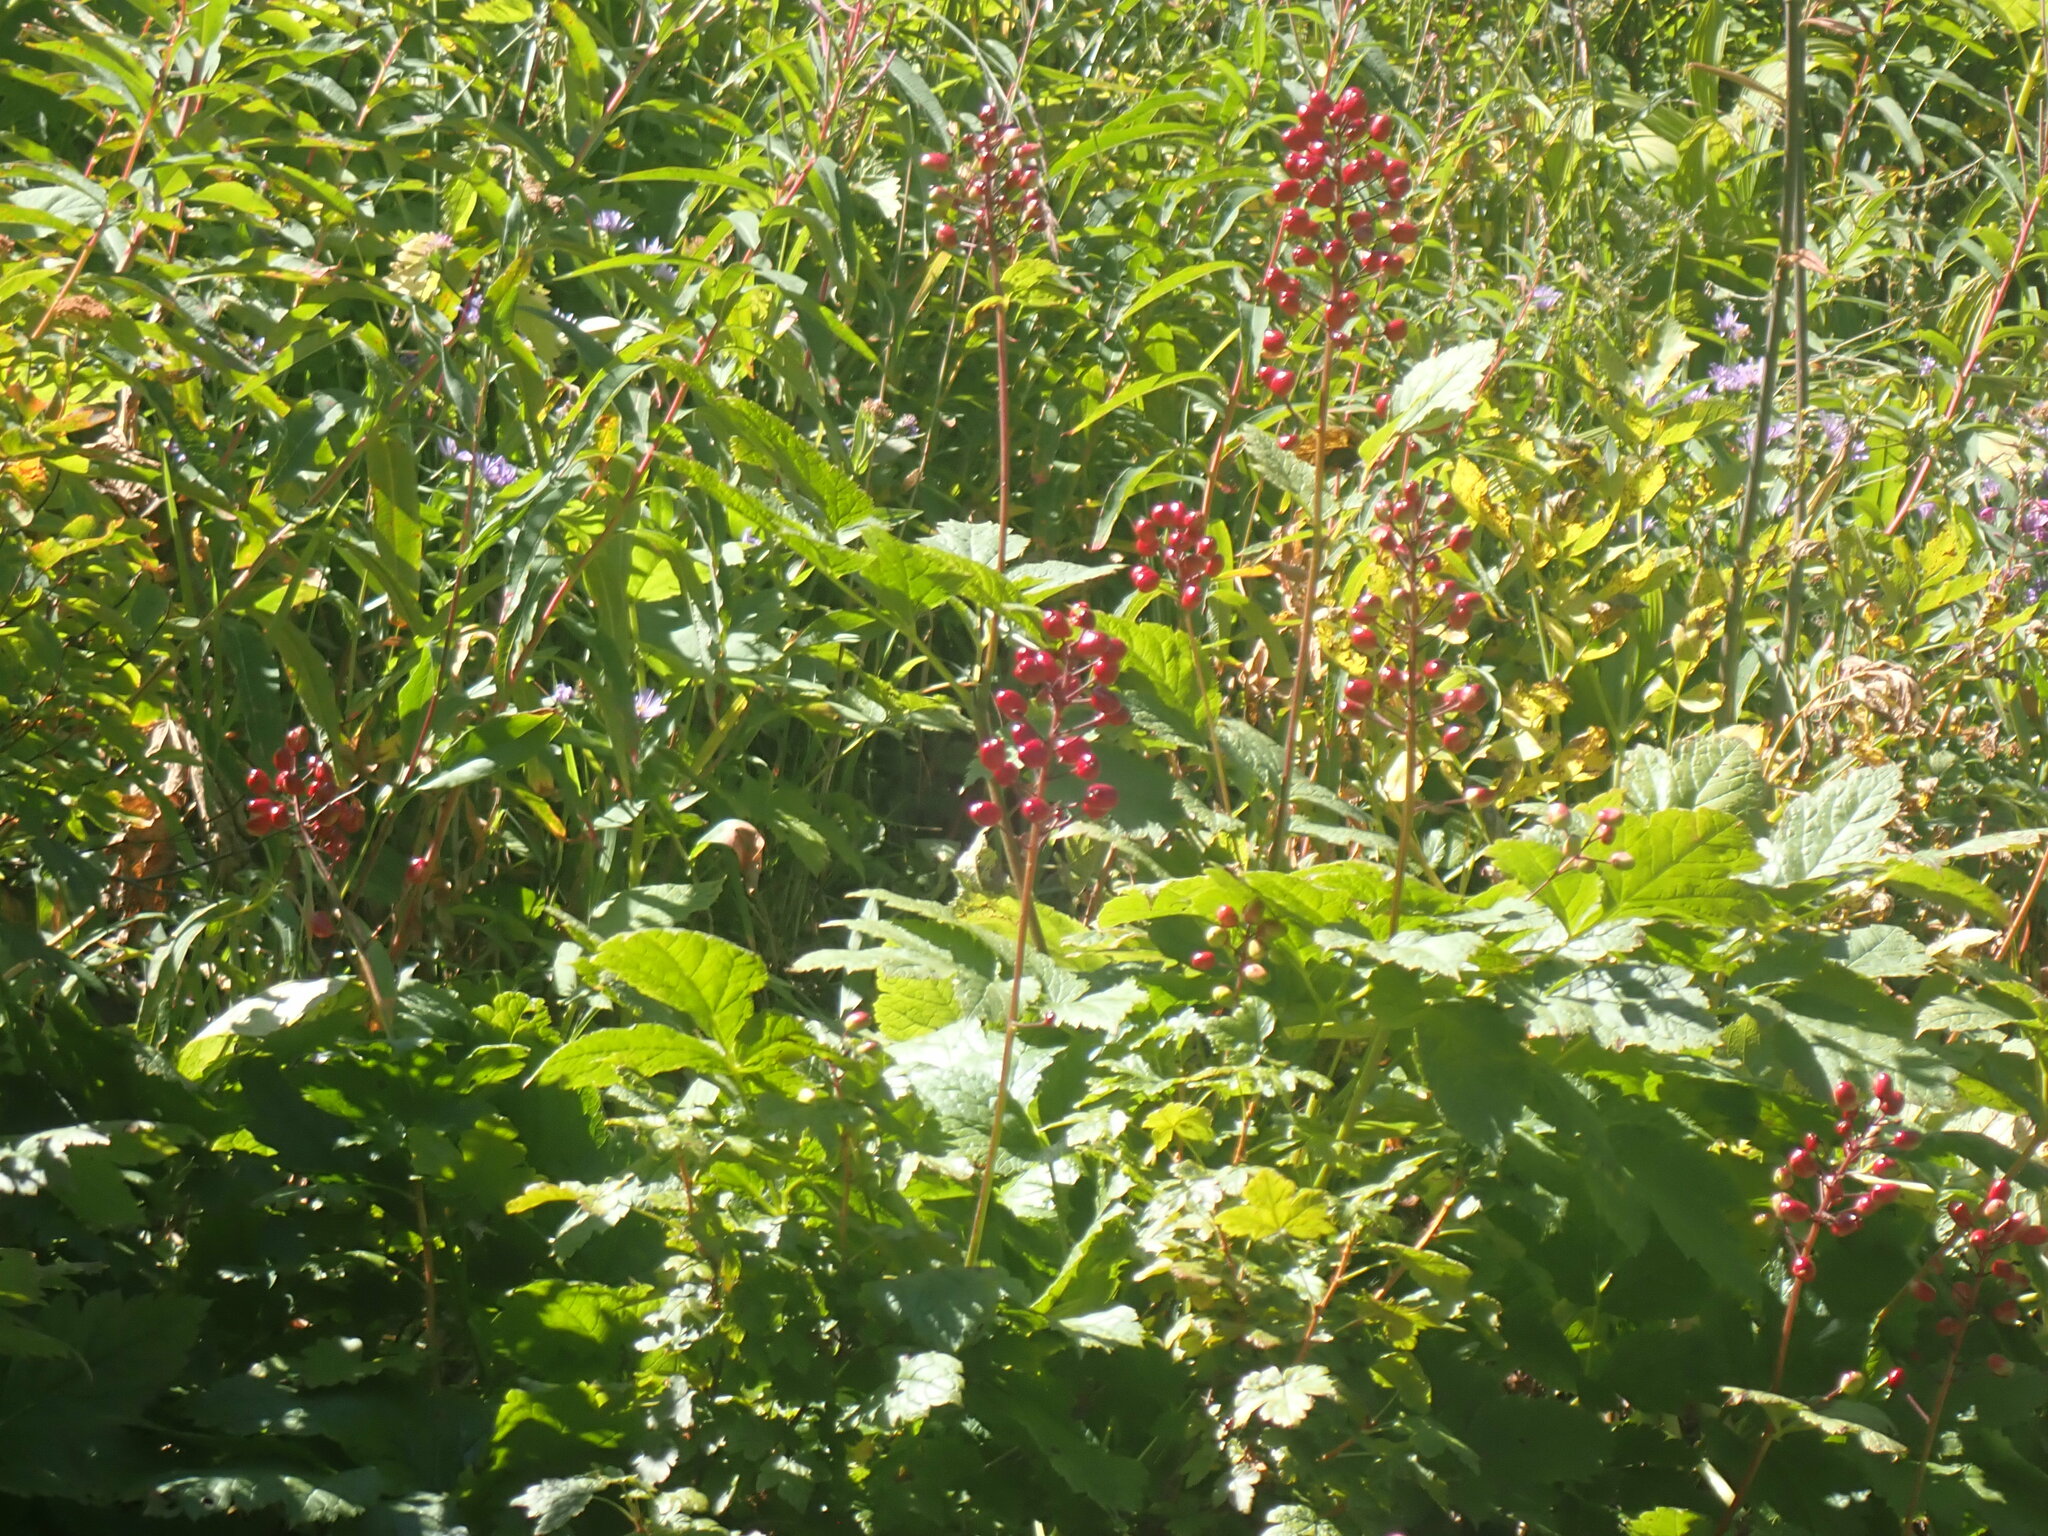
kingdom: Plantae
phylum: Tracheophyta
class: Magnoliopsida
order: Ranunculales
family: Ranunculaceae
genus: Actaea
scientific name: Actaea rubra
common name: Red baneberry
